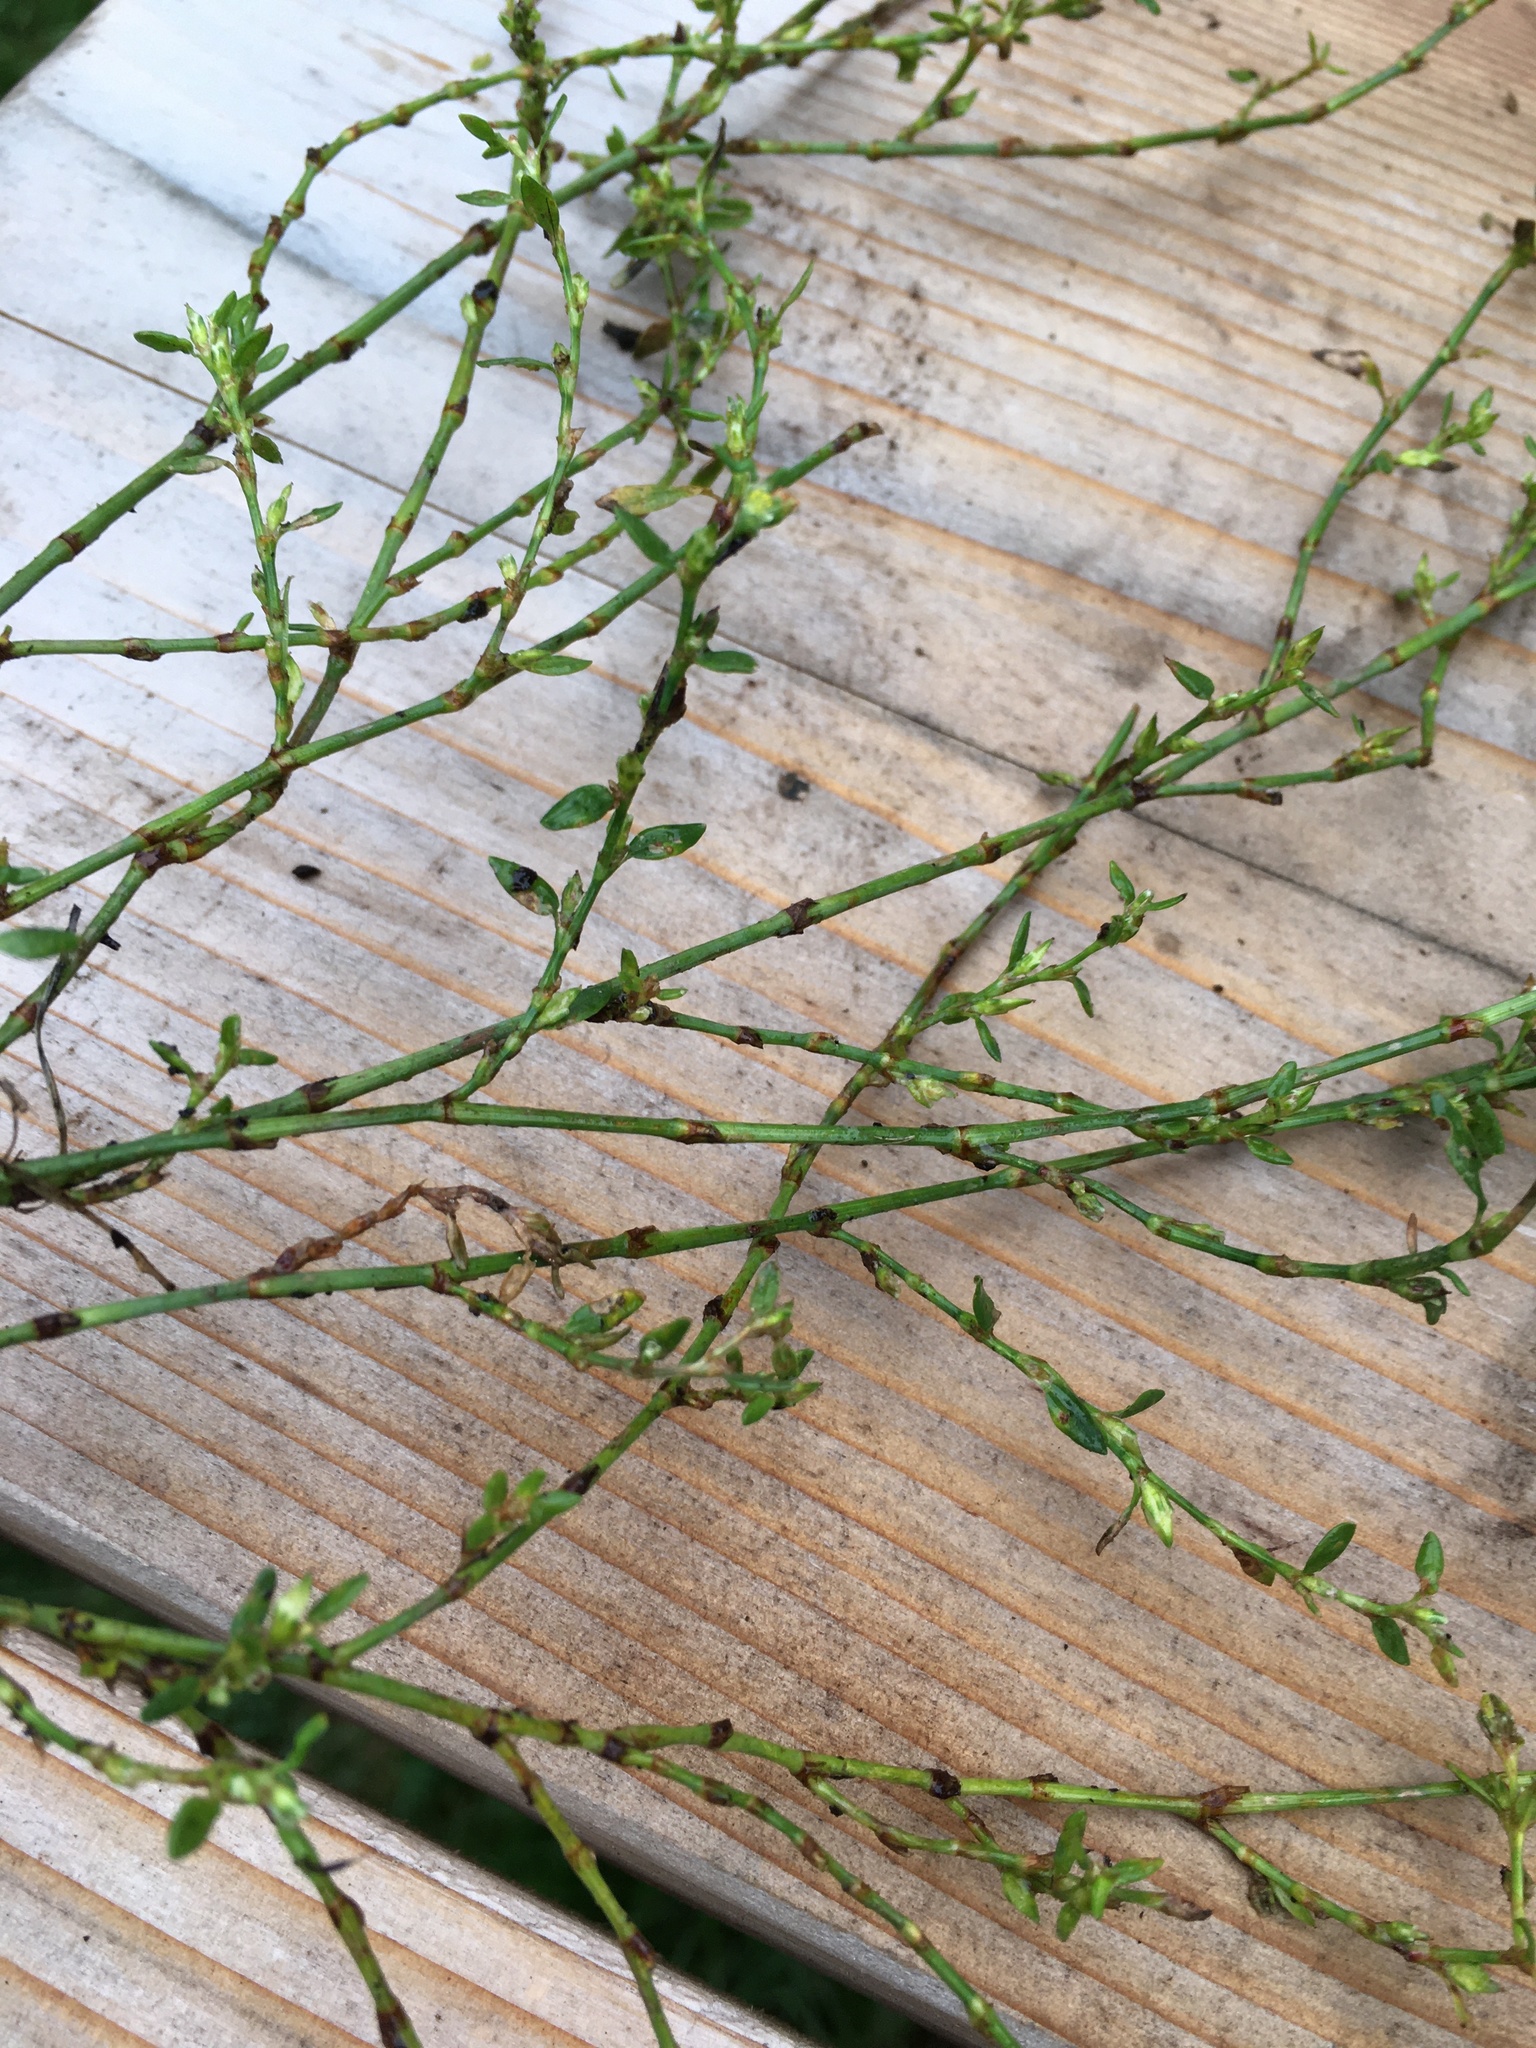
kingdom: Plantae
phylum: Tracheophyta
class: Magnoliopsida
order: Caryophyllales
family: Polygonaceae
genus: Polygonum
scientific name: Polygonum aviculare
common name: Prostrate knotweed
